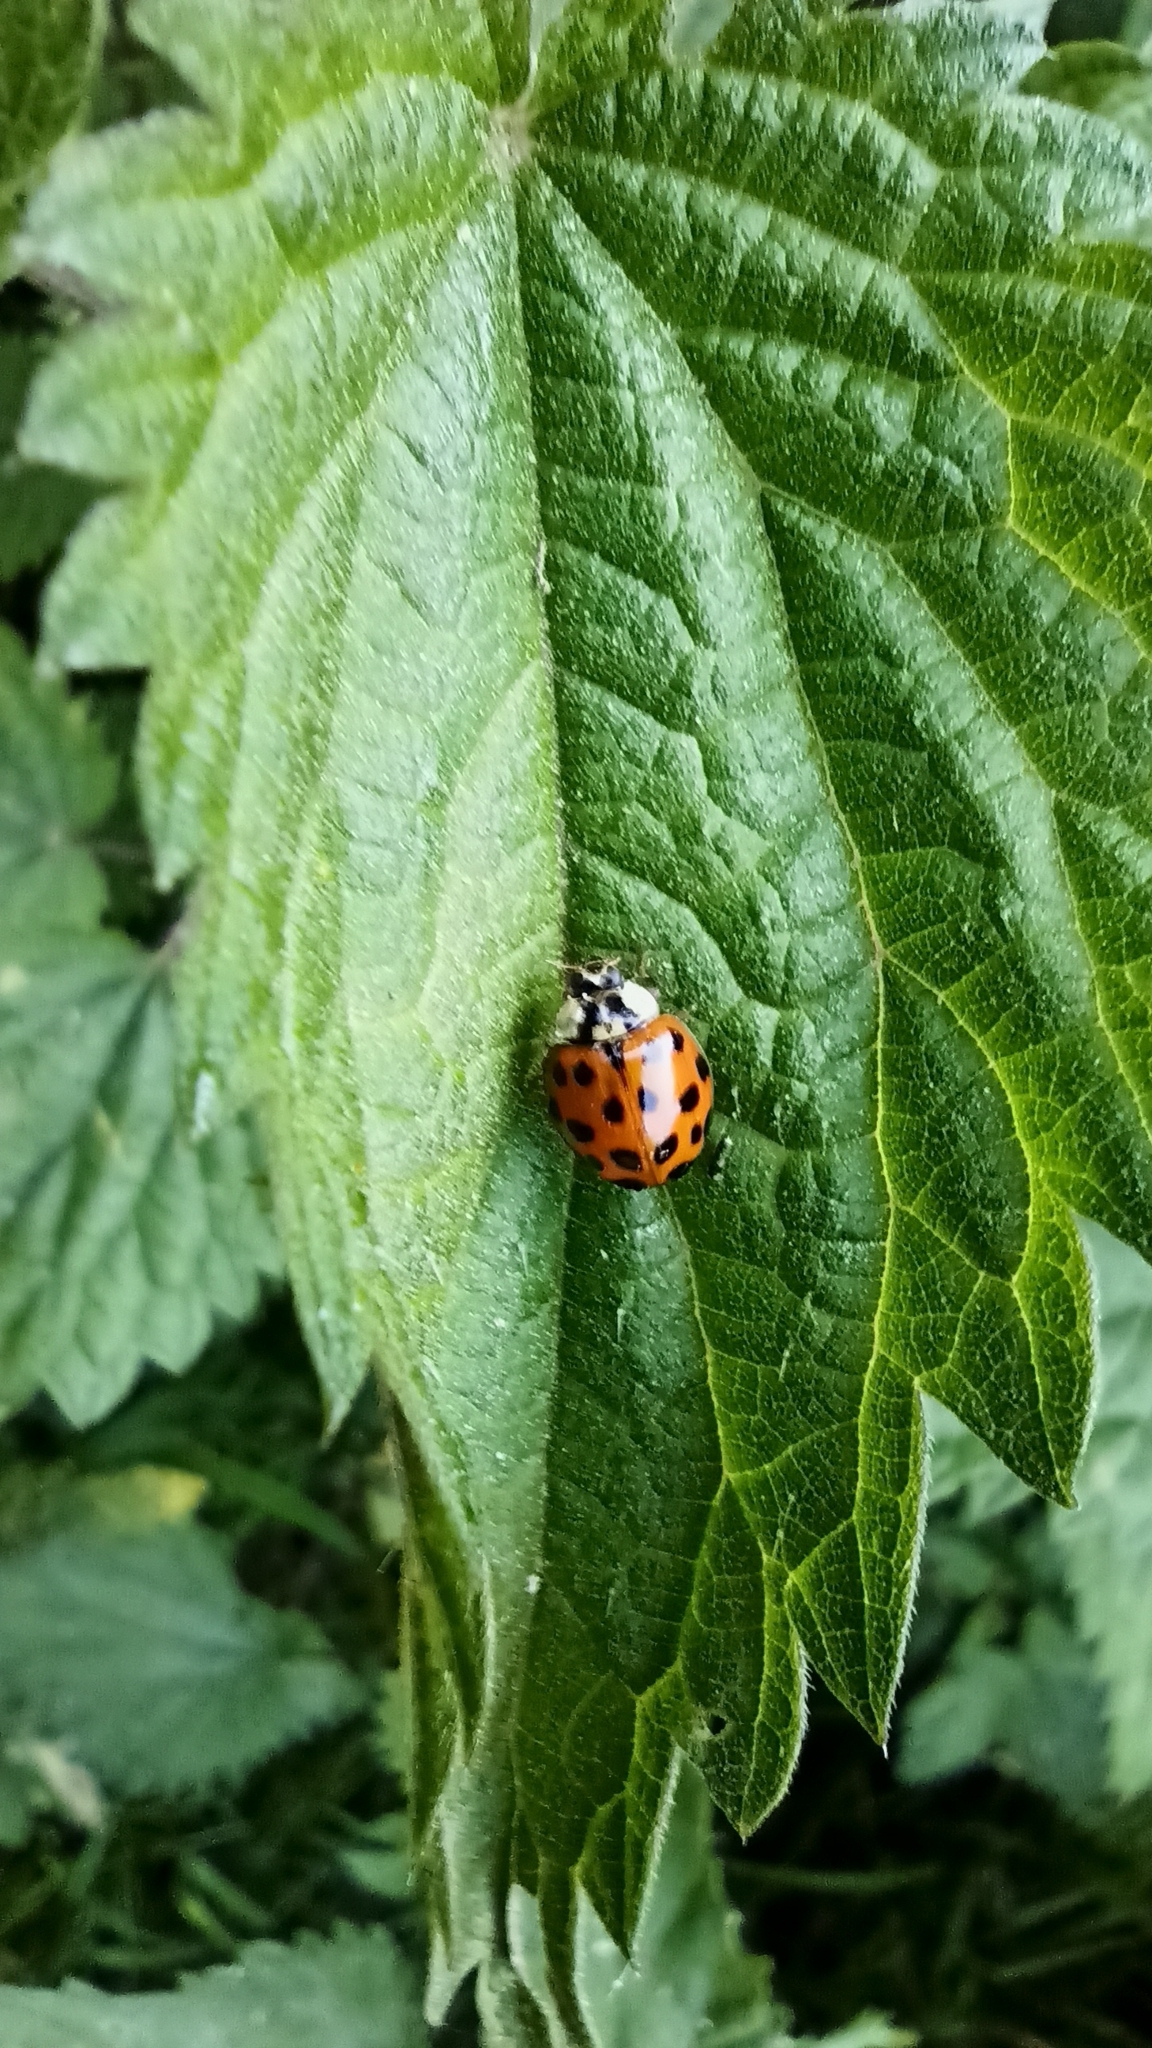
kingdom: Animalia
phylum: Arthropoda
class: Insecta
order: Coleoptera
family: Coccinellidae
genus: Harmonia
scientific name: Harmonia axyridis
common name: Harlequin ladybird
